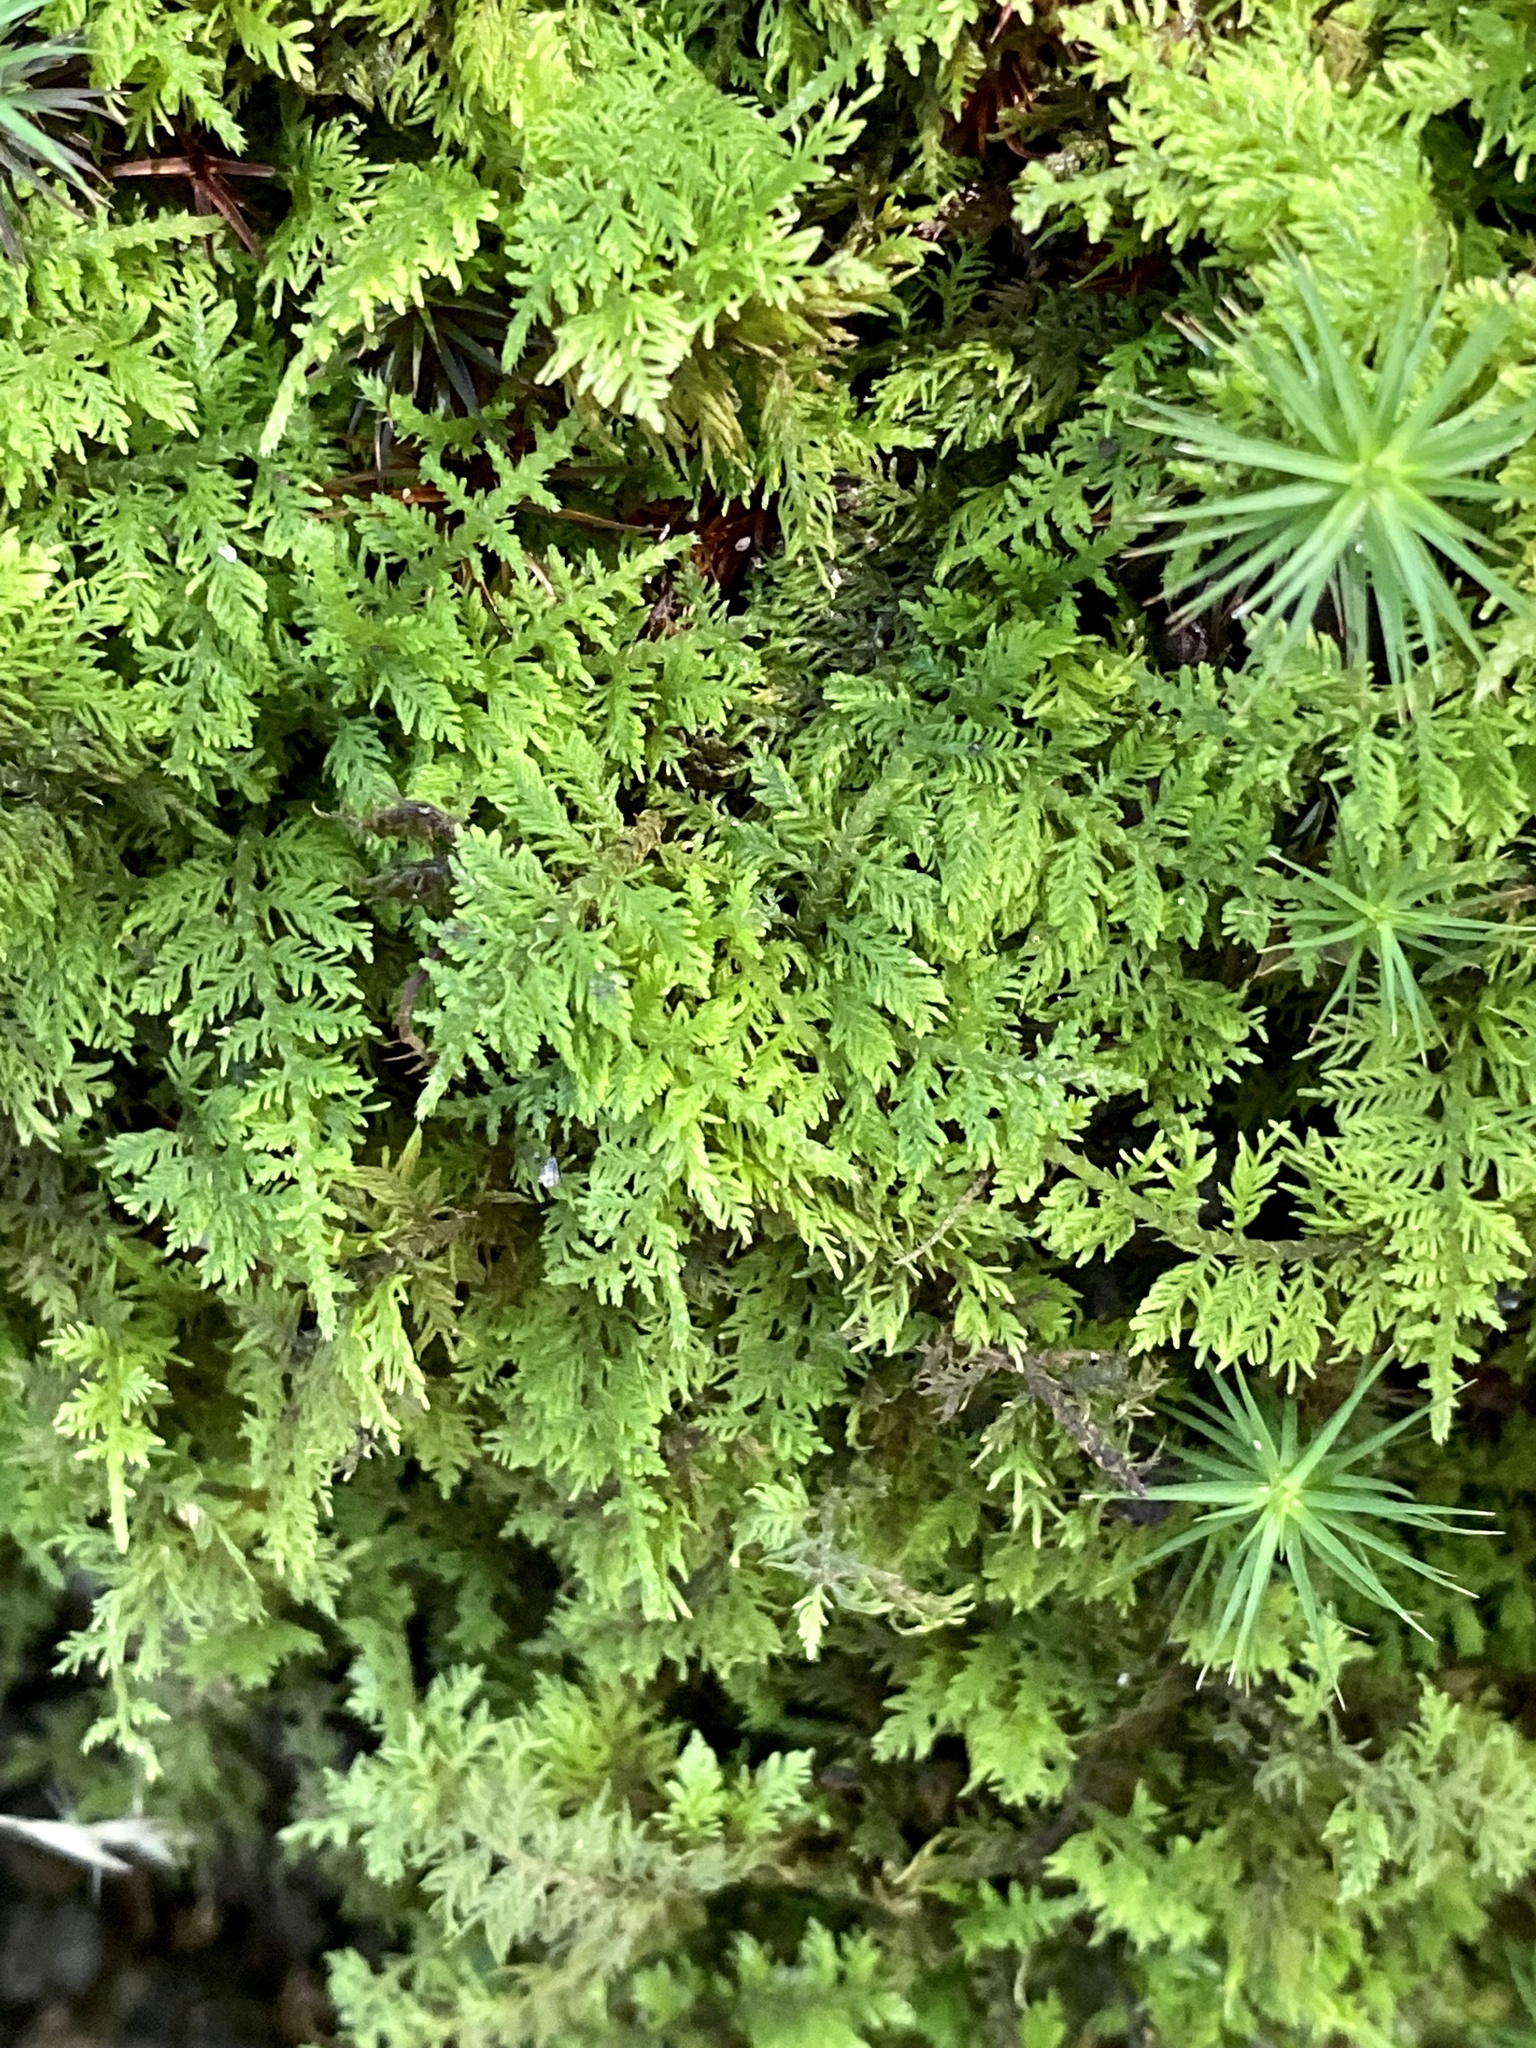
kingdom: Plantae
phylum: Bryophyta
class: Bryopsida
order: Hypnales
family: Thuidiaceae
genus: Thuidium
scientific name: Thuidium delicatulum
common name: Delicate fern moss
